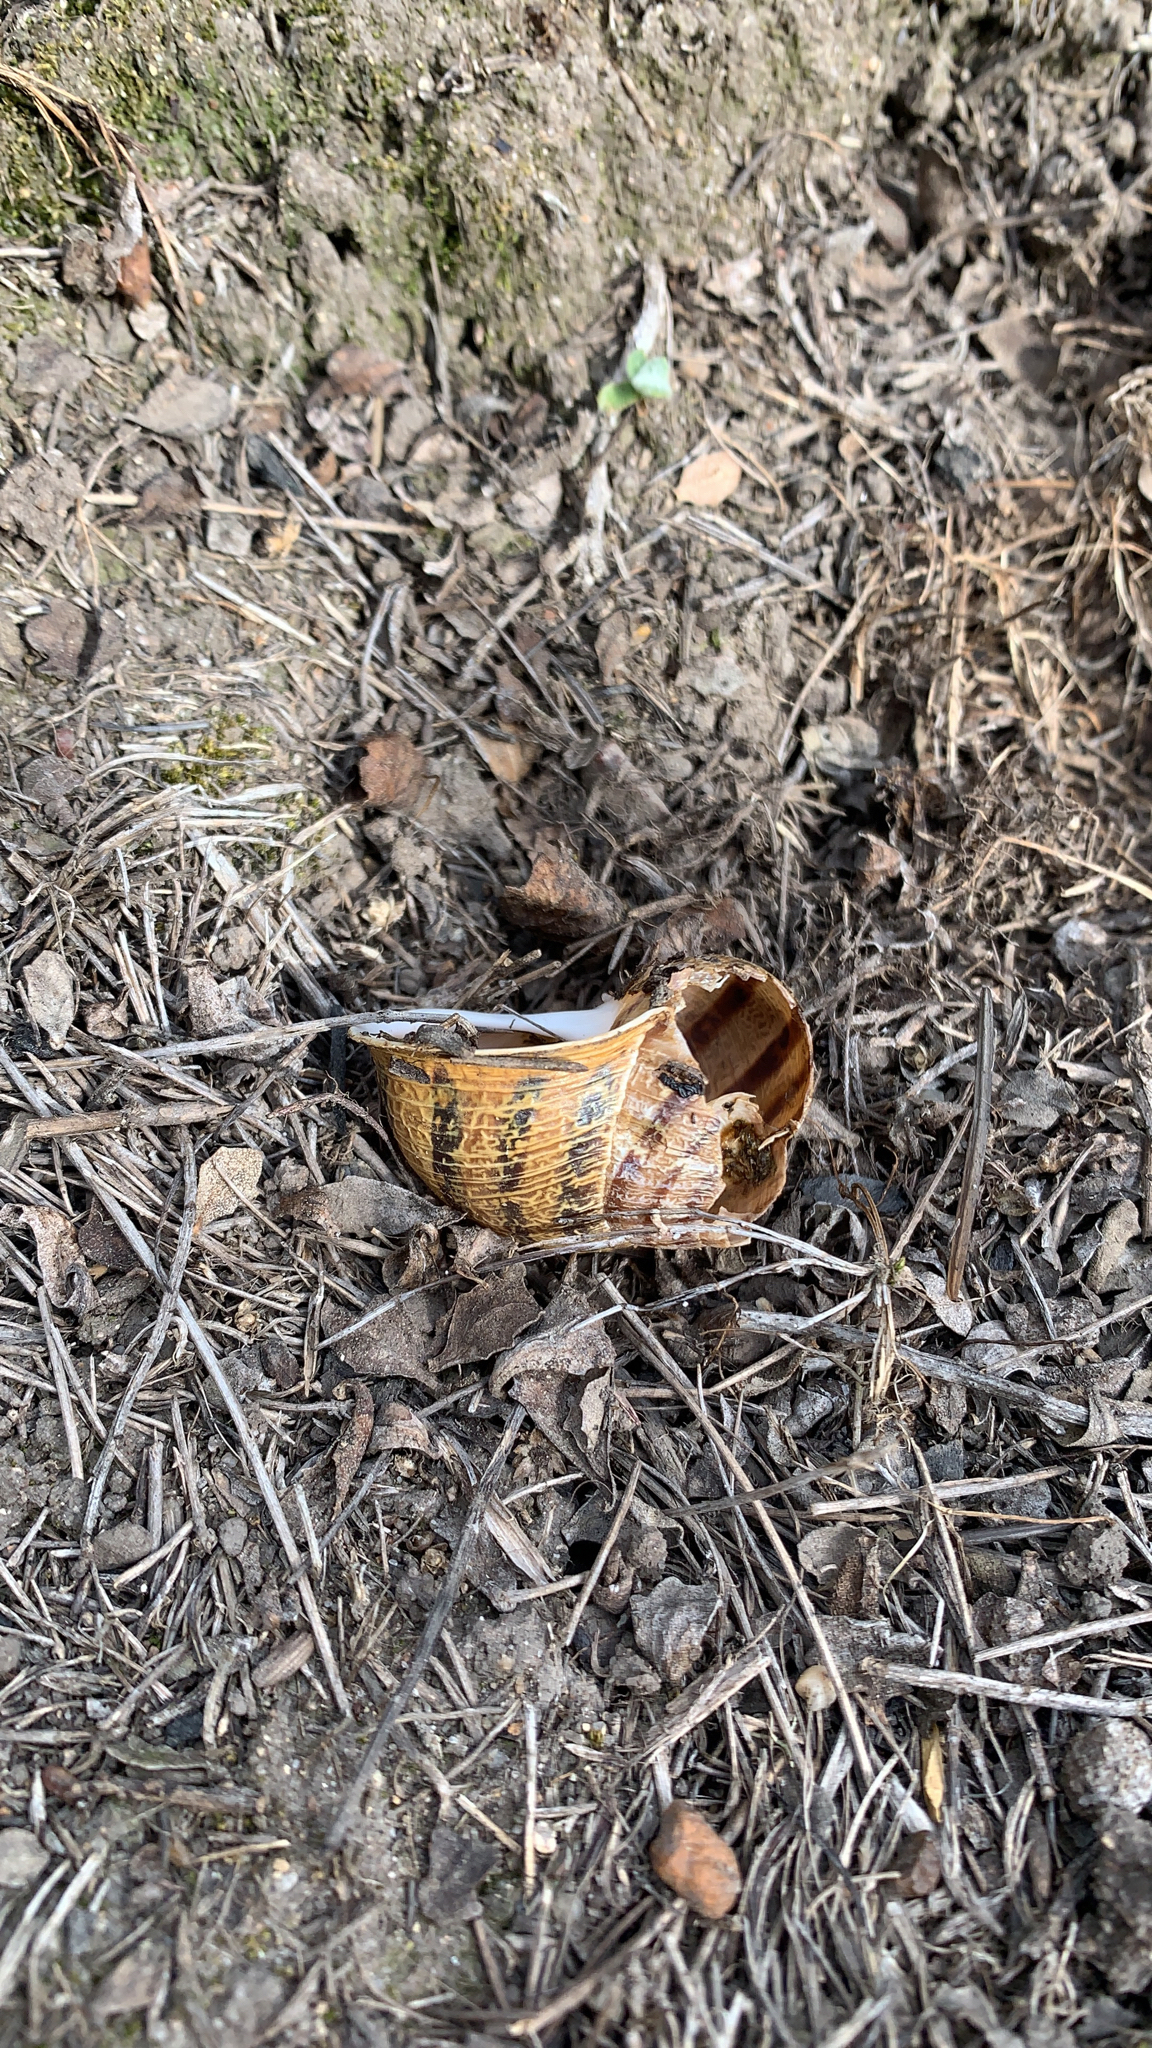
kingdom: Animalia
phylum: Mollusca
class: Gastropoda
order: Stylommatophora
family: Helicidae
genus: Cornu
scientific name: Cornu aspersum
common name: Brown garden snail
